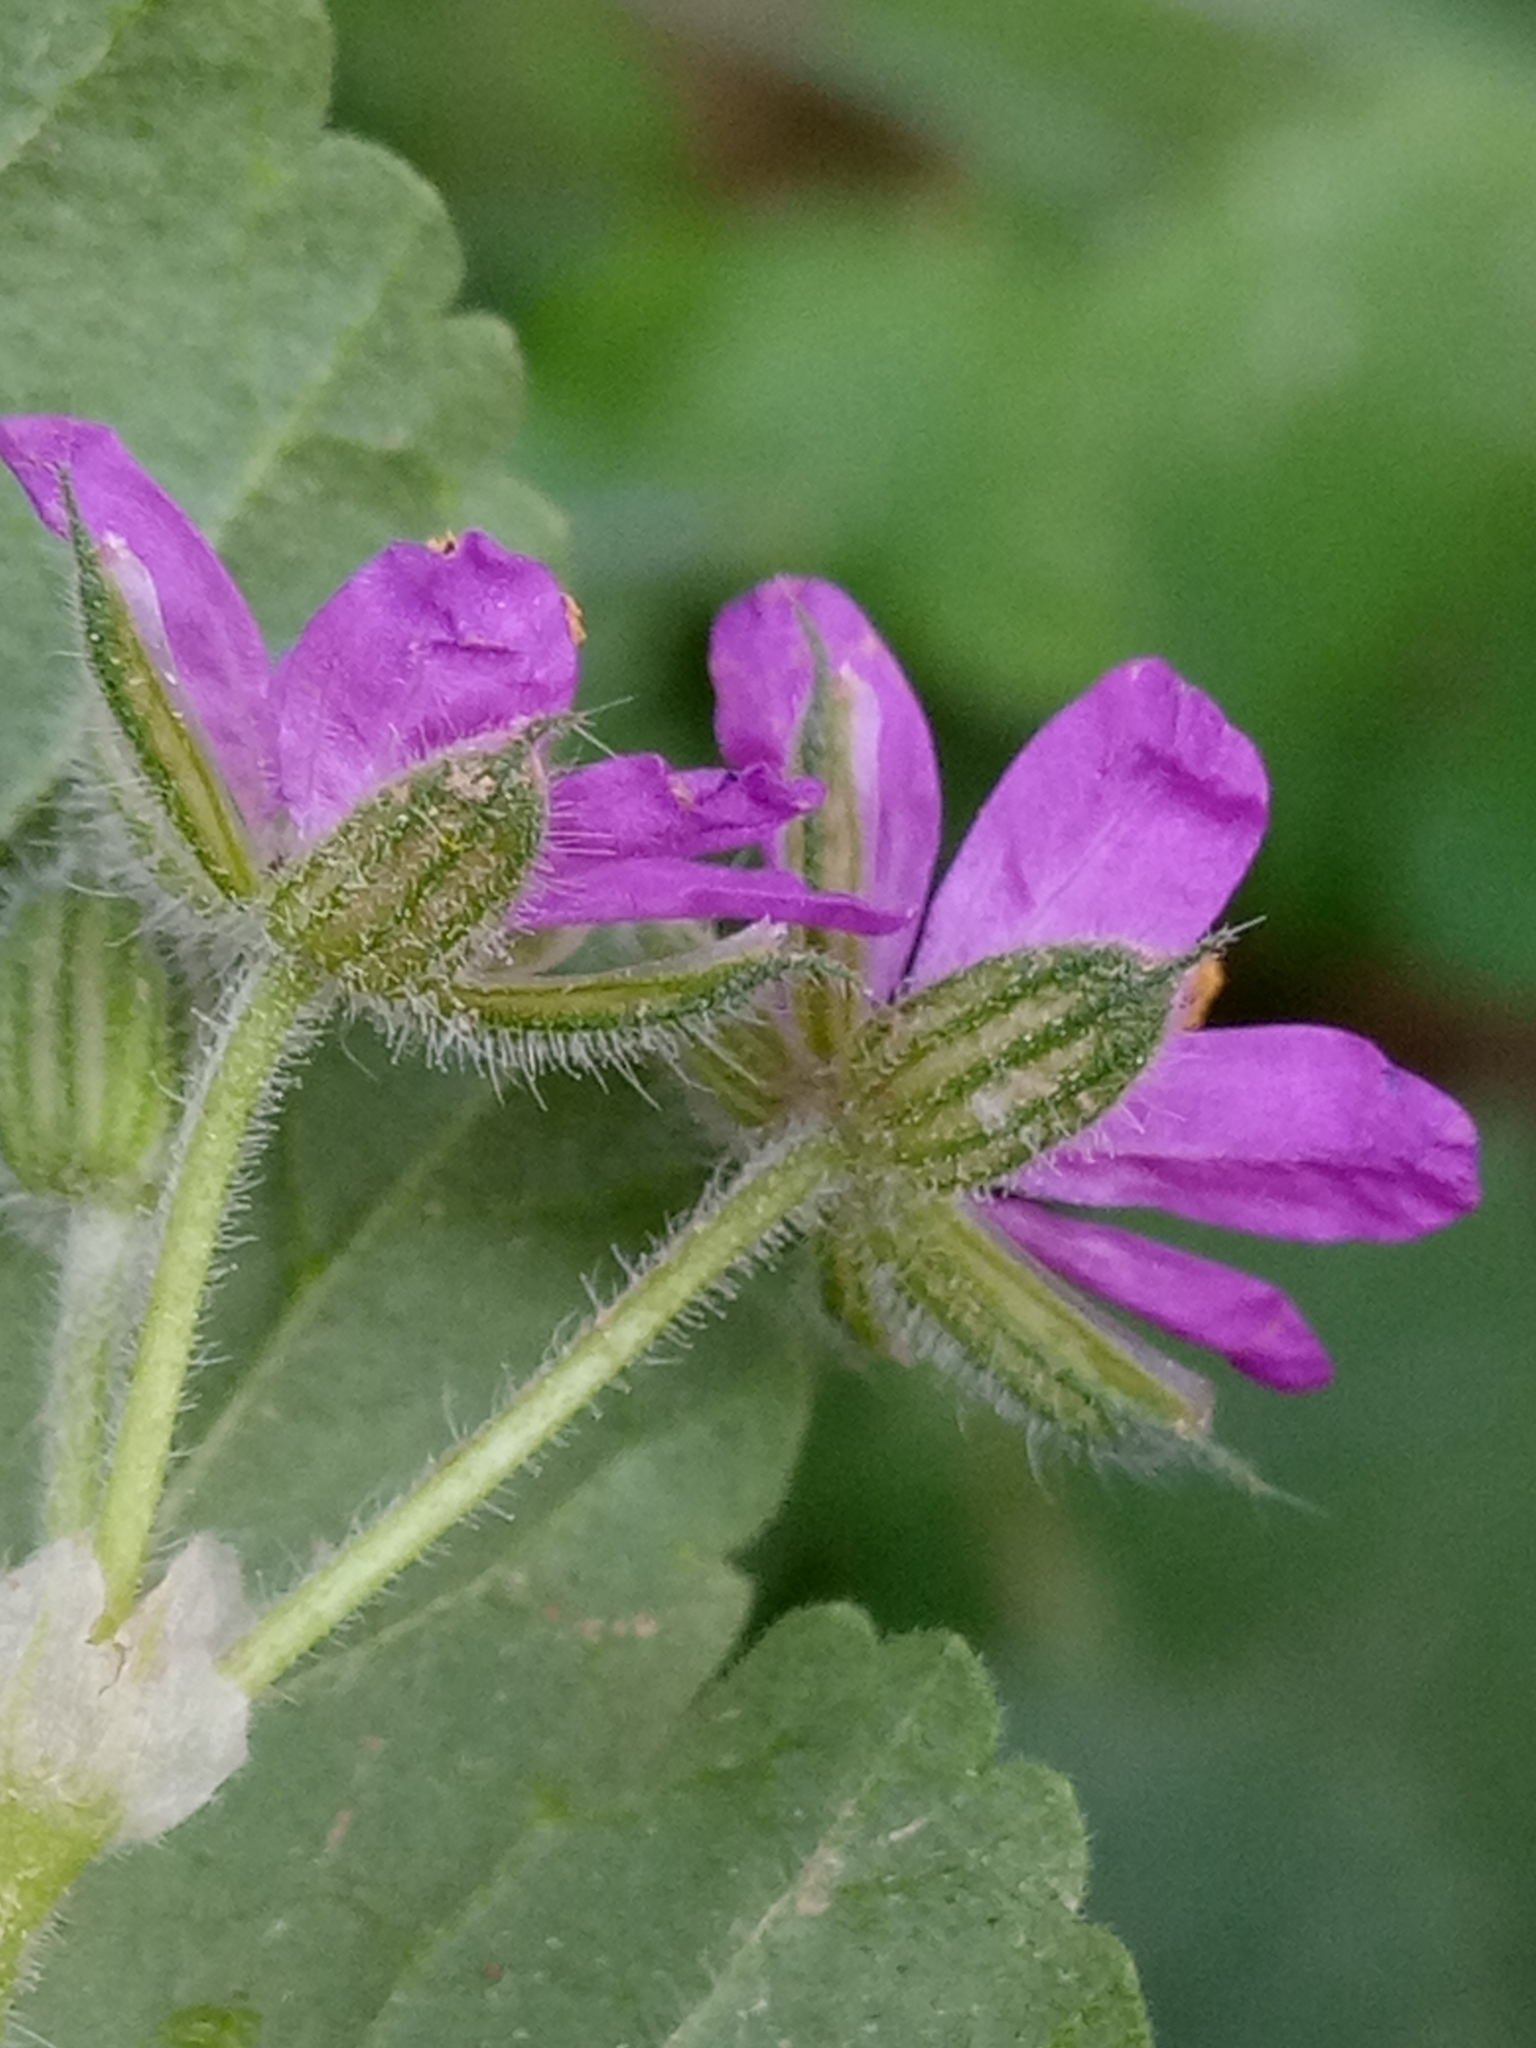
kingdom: Plantae
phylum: Tracheophyta
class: Magnoliopsida
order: Geraniales
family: Geraniaceae
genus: Erodium
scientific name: Erodium malacoides
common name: Soft stork's-bill
